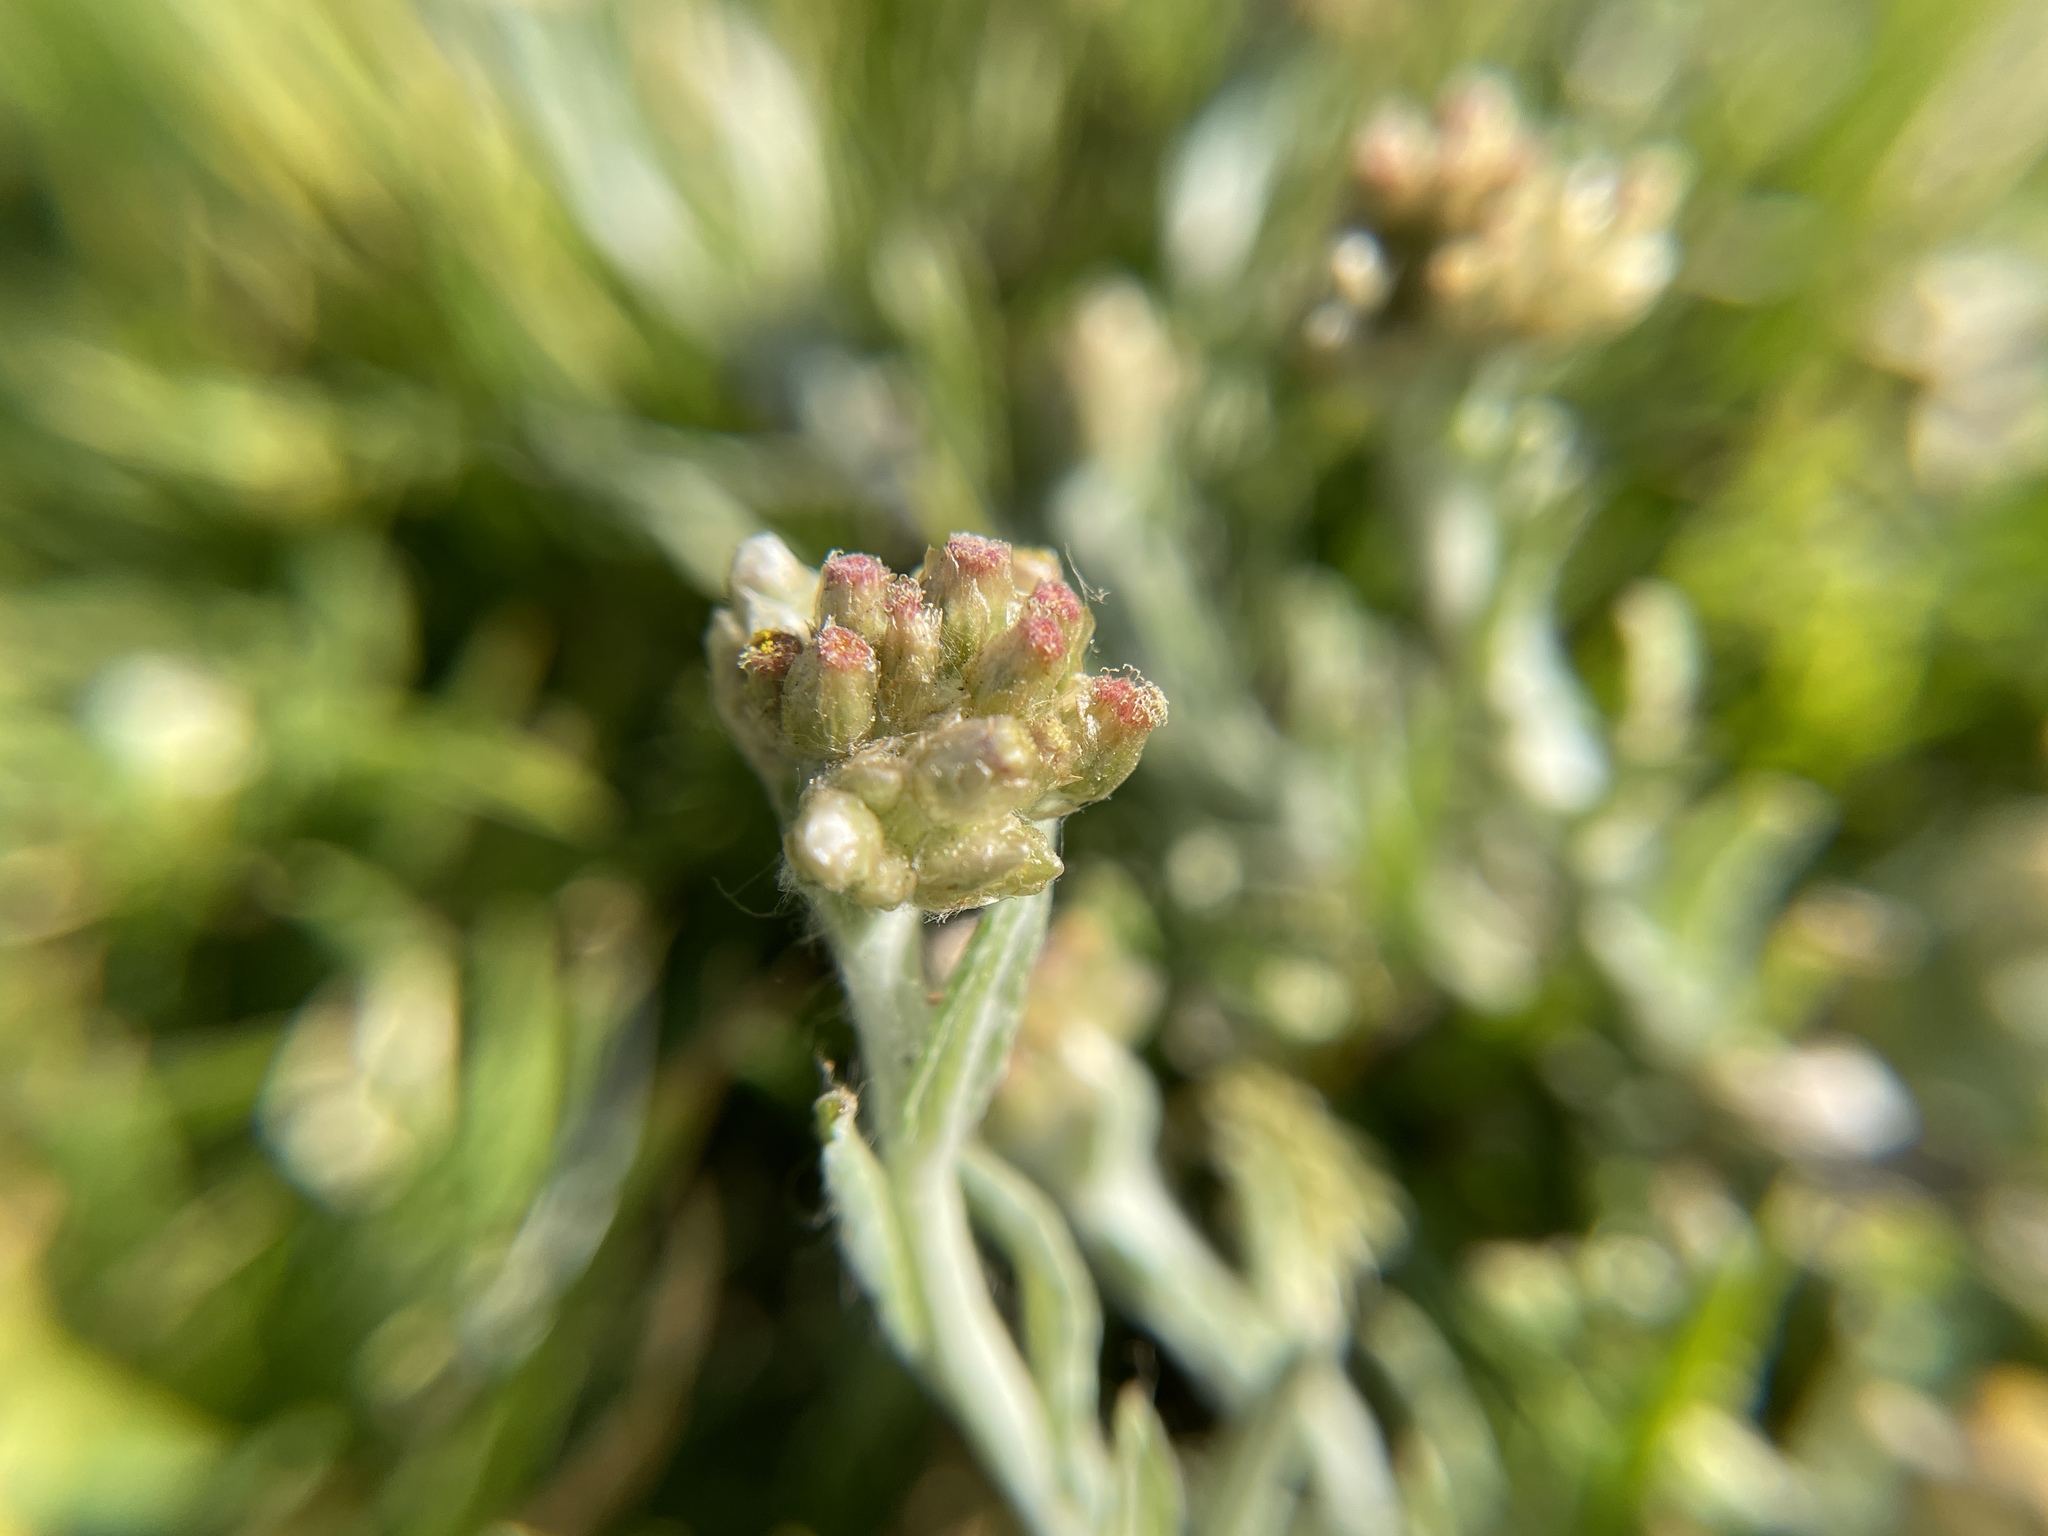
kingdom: Plantae
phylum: Tracheophyta
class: Magnoliopsida
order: Asterales
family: Asteraceae
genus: Helichrysum
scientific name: Helichrysum luteoalbum
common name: Daisy
